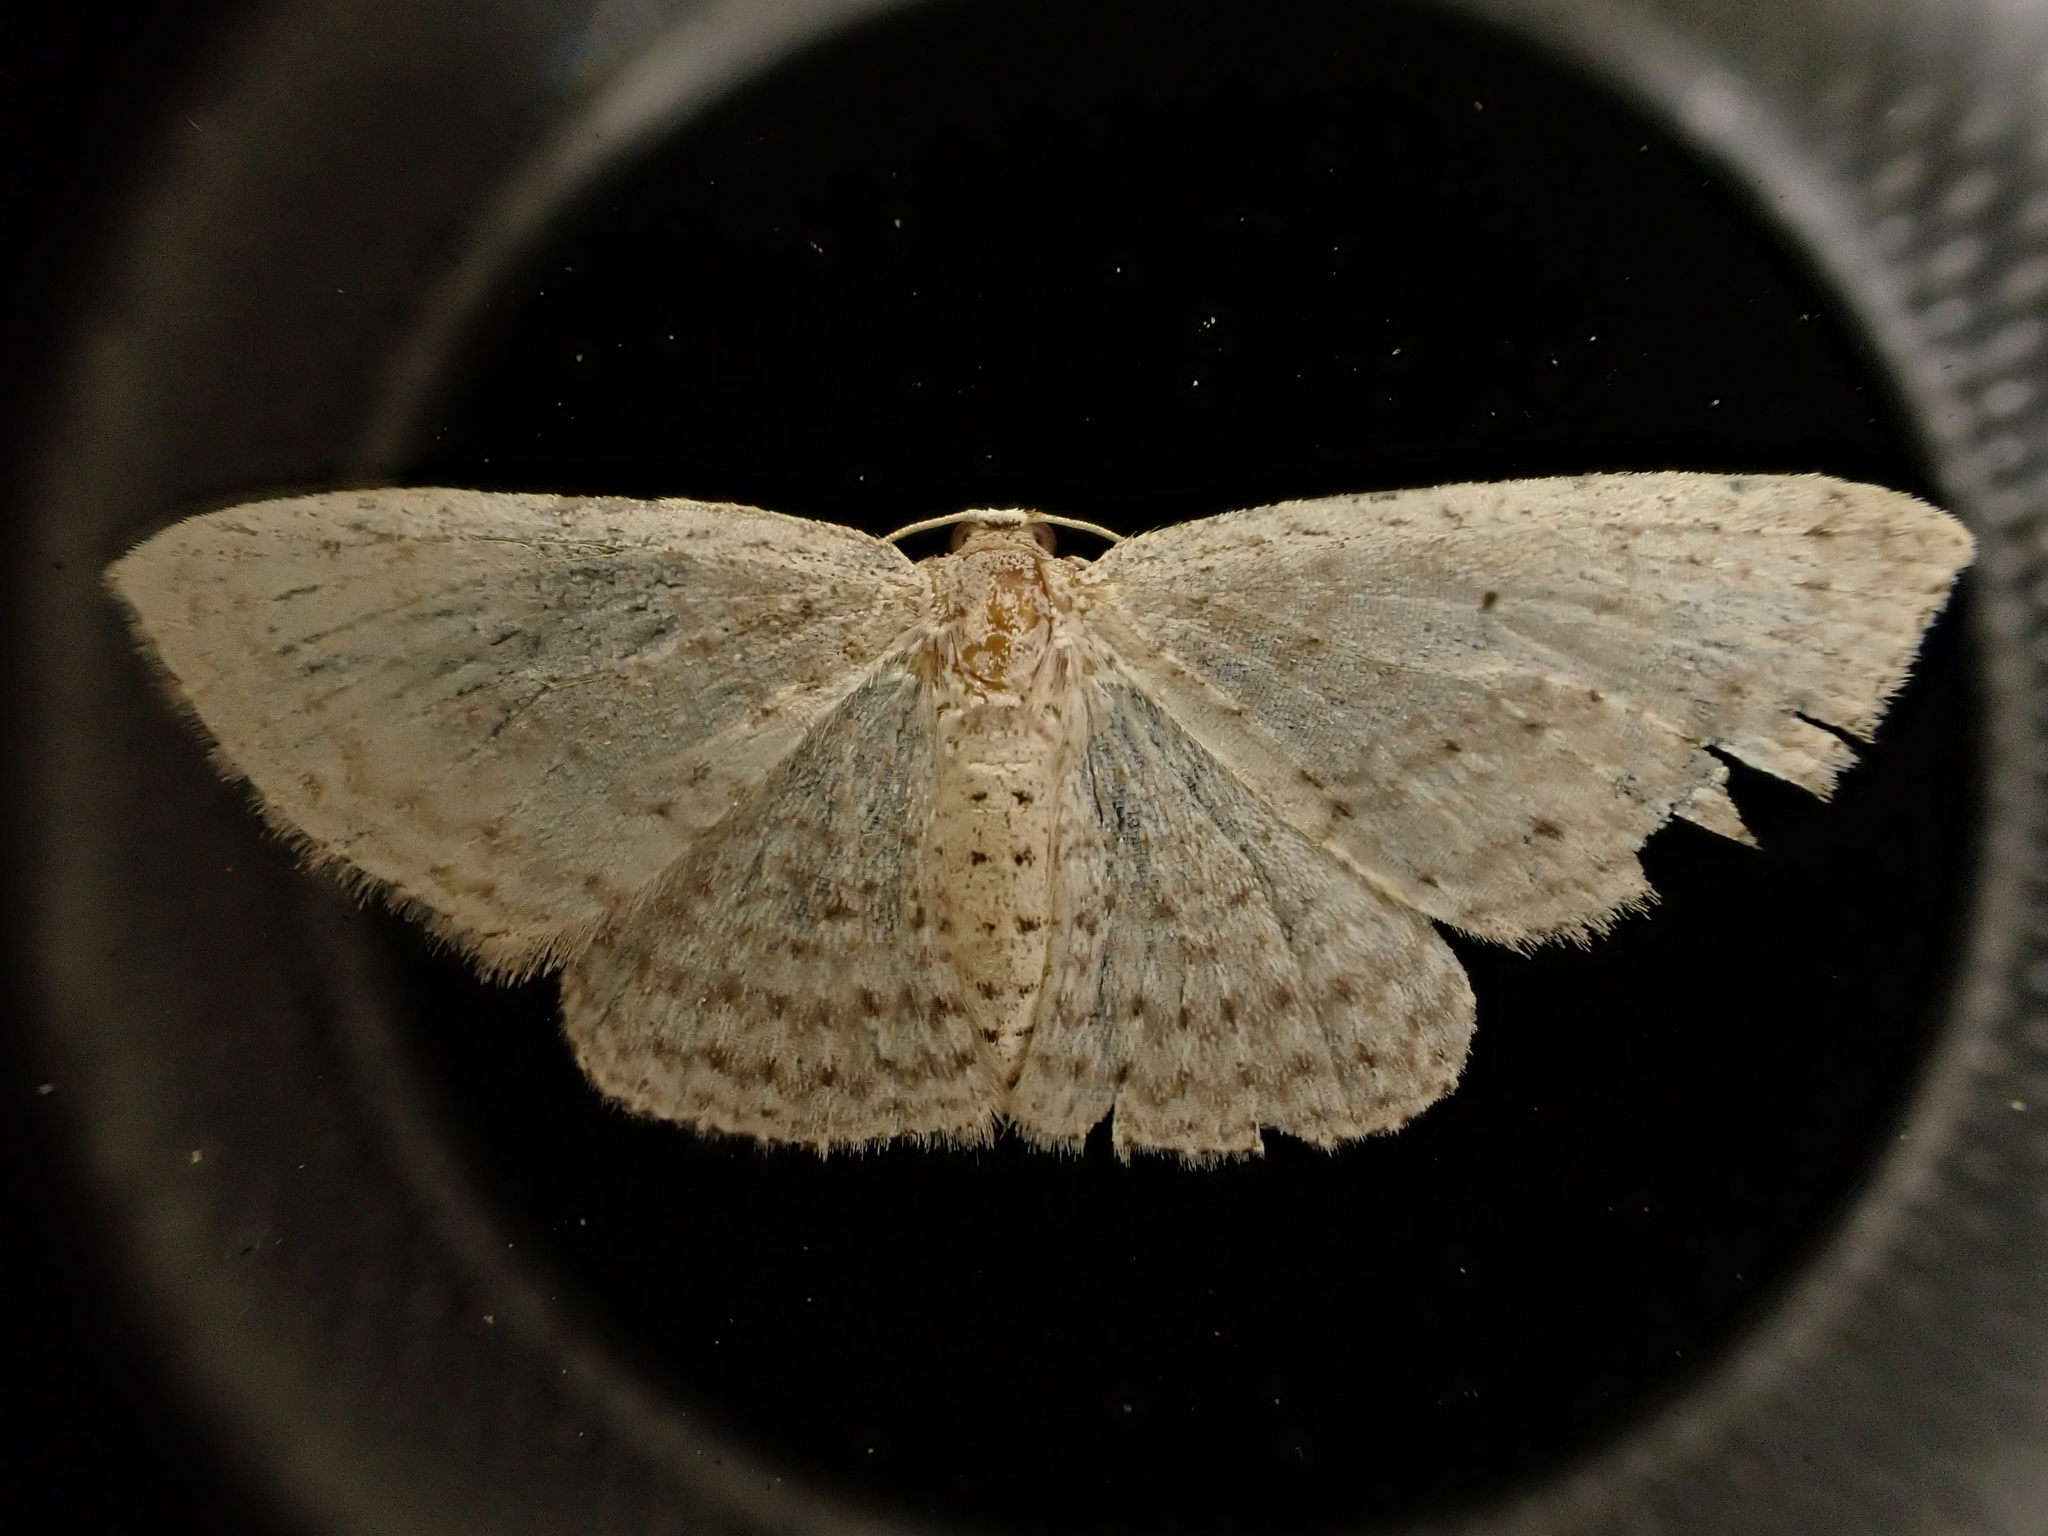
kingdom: Animalia
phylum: Arthropoda
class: Insecta
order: Lepidoptera
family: Geometridae
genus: Poecilasthena
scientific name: Poecilasthena schistaria
